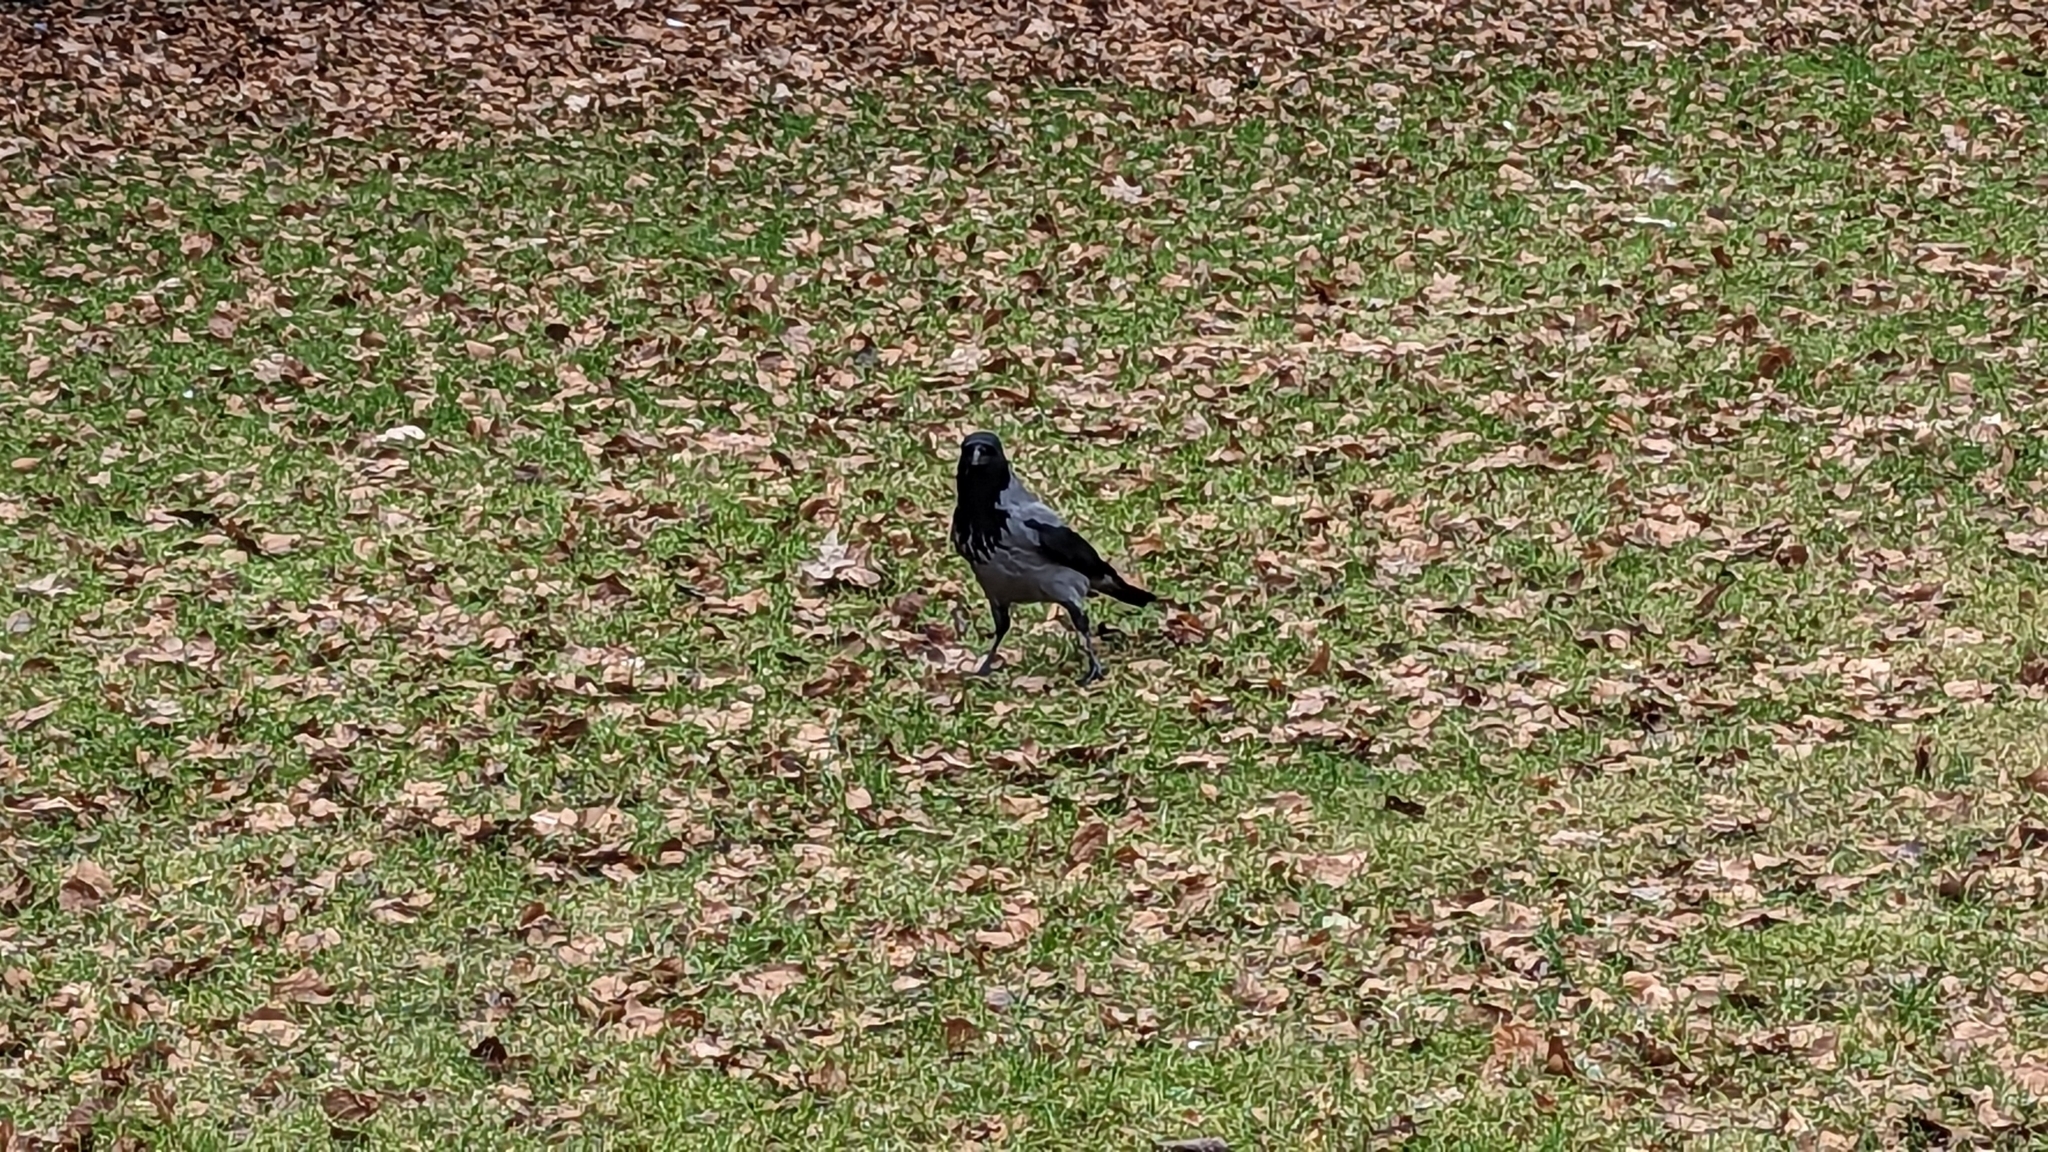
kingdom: Animalia
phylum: Chordata
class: Aves
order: Passeriformes
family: Corvidae
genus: Corvus
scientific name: Corvus cornix
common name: Hooded crow
